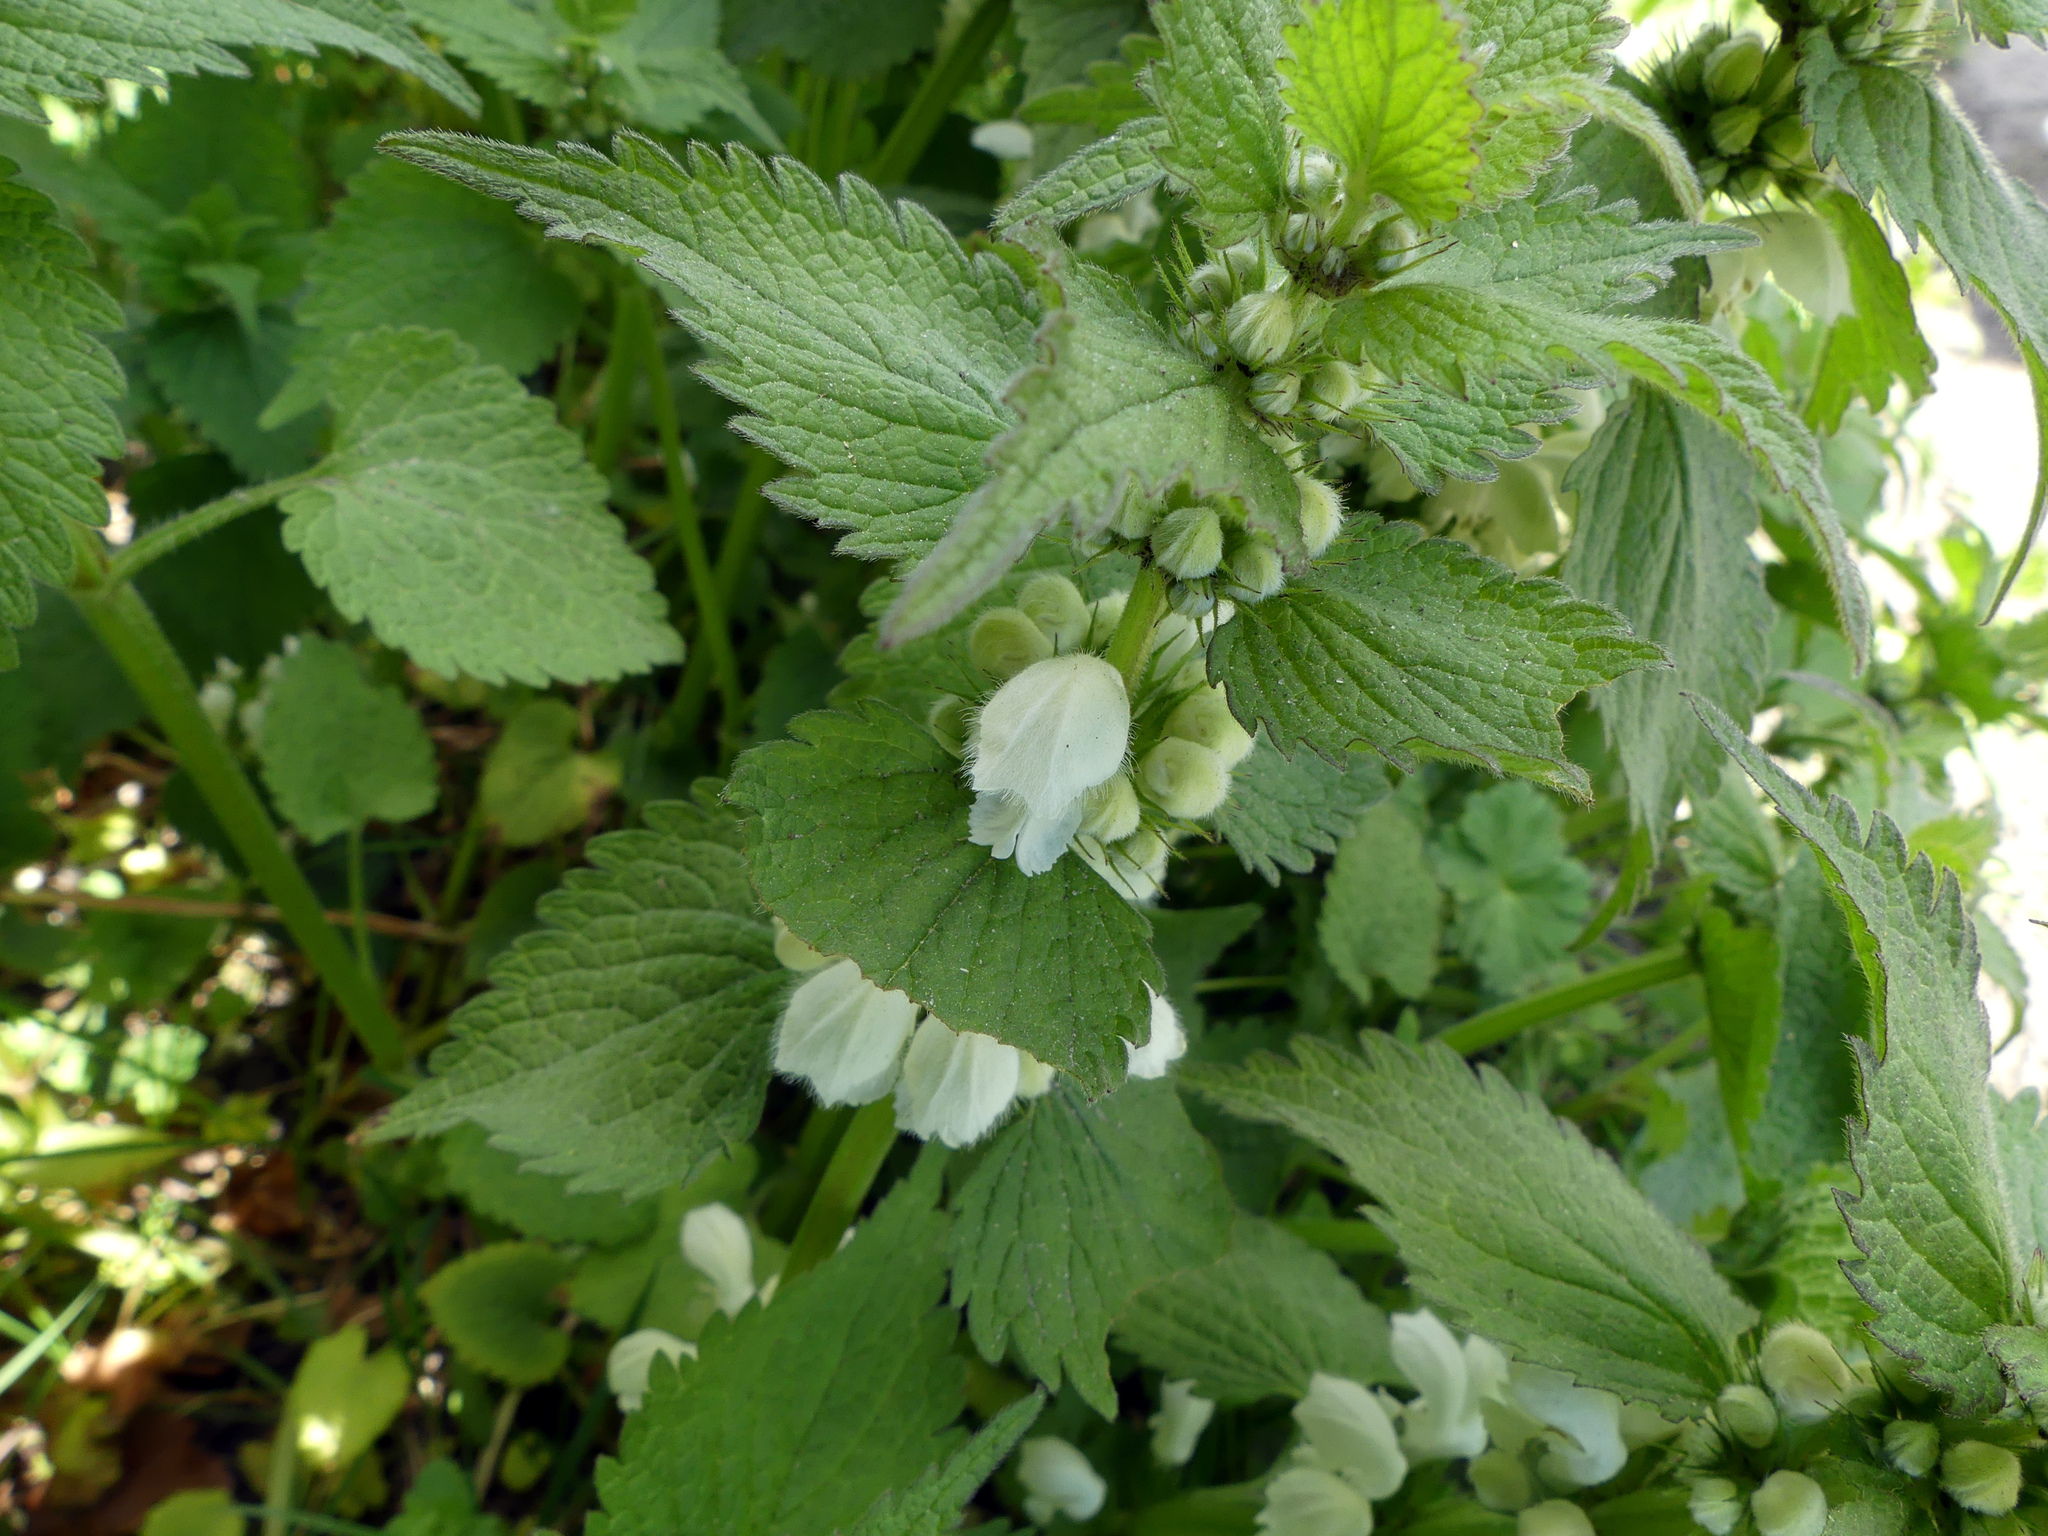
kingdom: Plantae
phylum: Tracheophyta
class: Magnoliopsida
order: Lamiales
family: Lamiaceae
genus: Lamium
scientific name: Lamium album
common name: White dead-nettle
